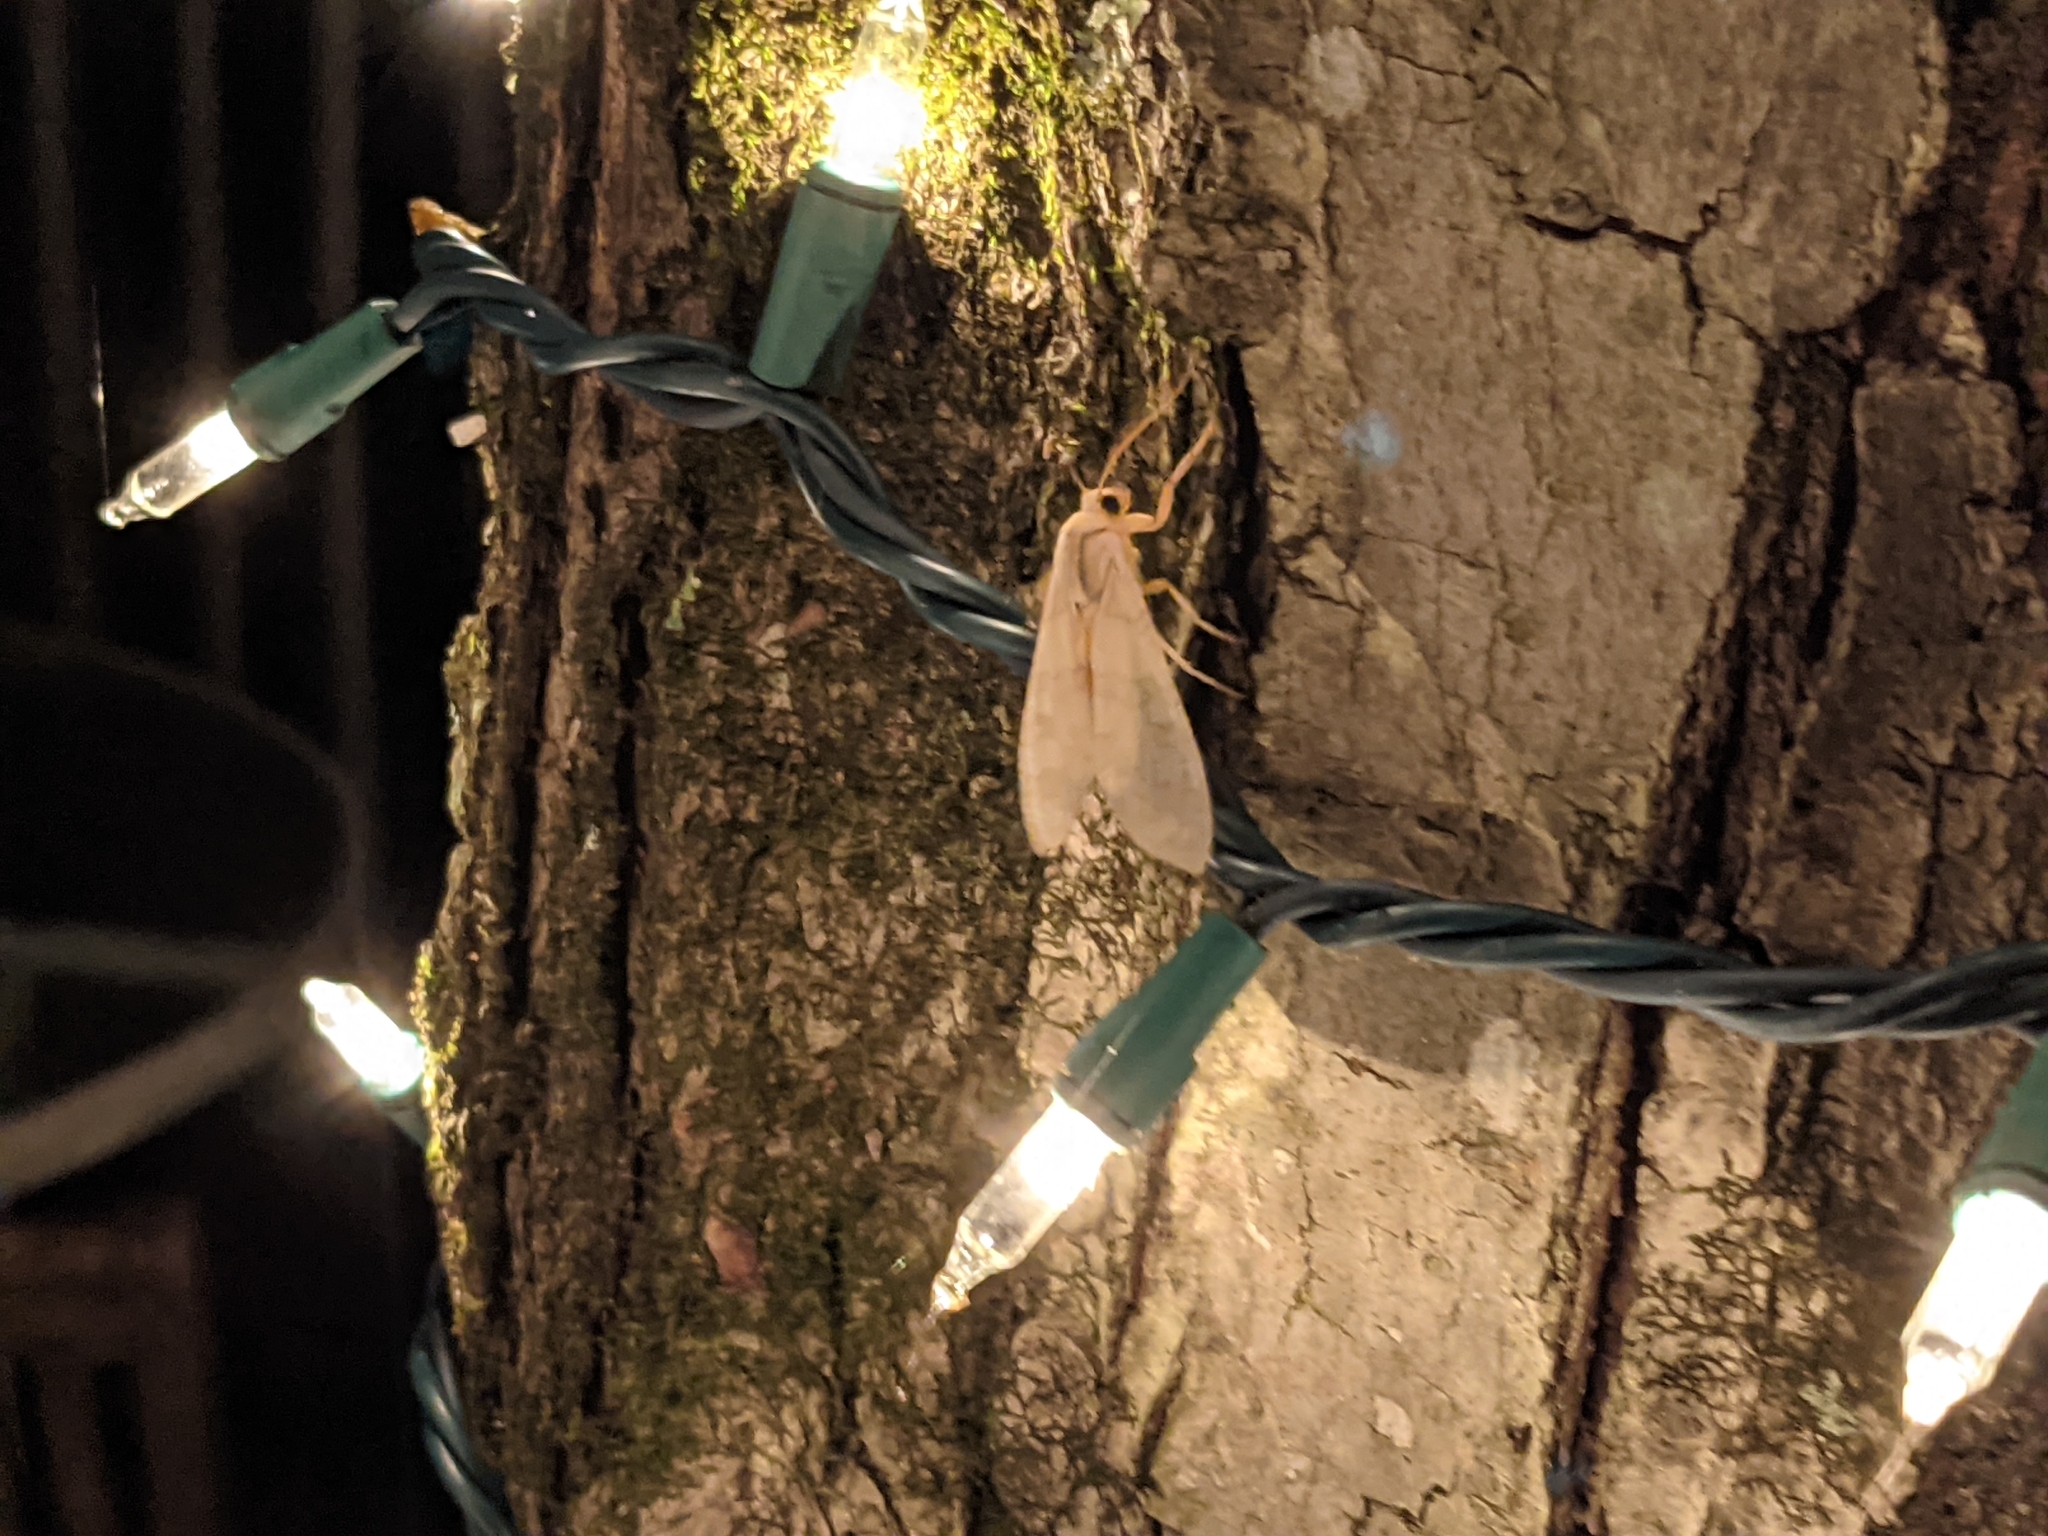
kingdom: Animalia
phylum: Arthropoda
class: Insecta
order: Lepidoptera
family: Erebidae
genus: Halysidota
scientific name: Halysidota
